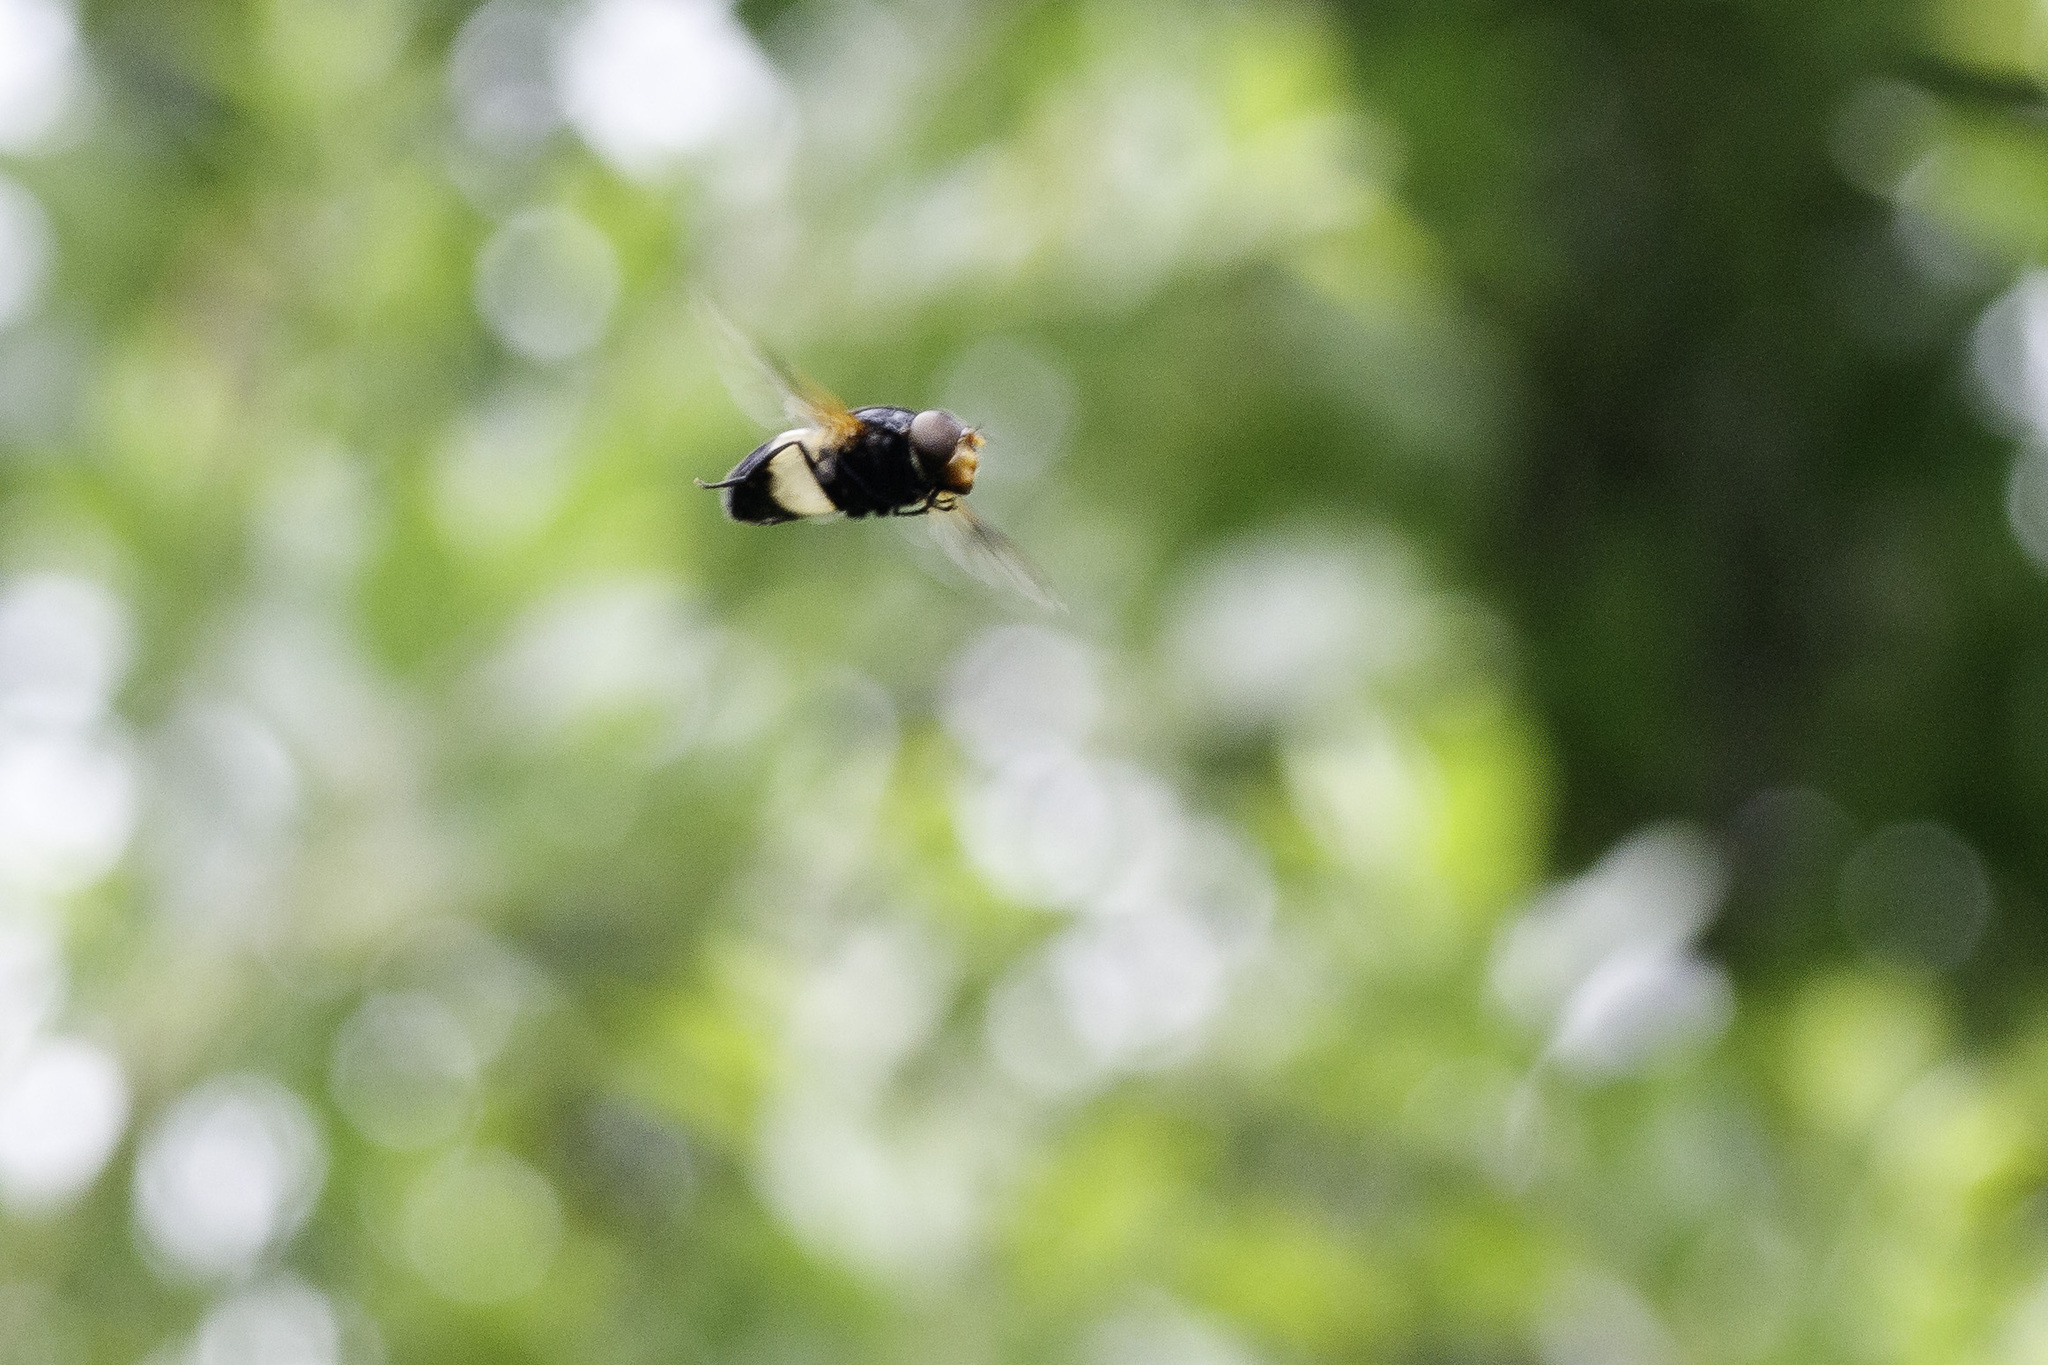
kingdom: Animalia
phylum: Arthropoda
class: Insecta
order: Diptera
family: Syrphidae
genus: Volucella
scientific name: Volucella pellucens
